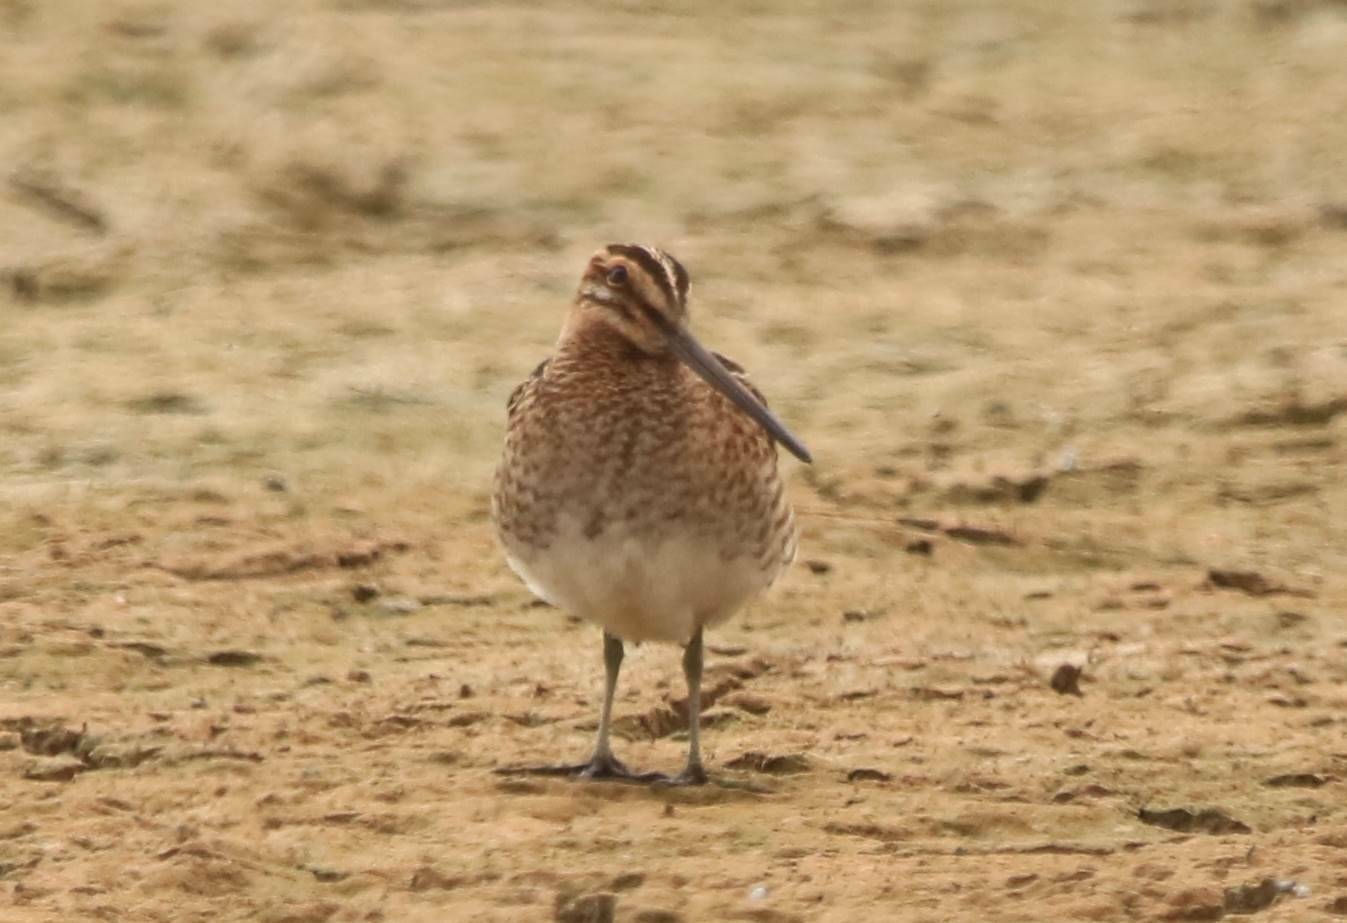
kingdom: Animalia
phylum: Chordata
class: Aves
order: Charadriiformes
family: Scolopacidae
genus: Gallinago
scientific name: Gallinago gallinago
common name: Common snipe
